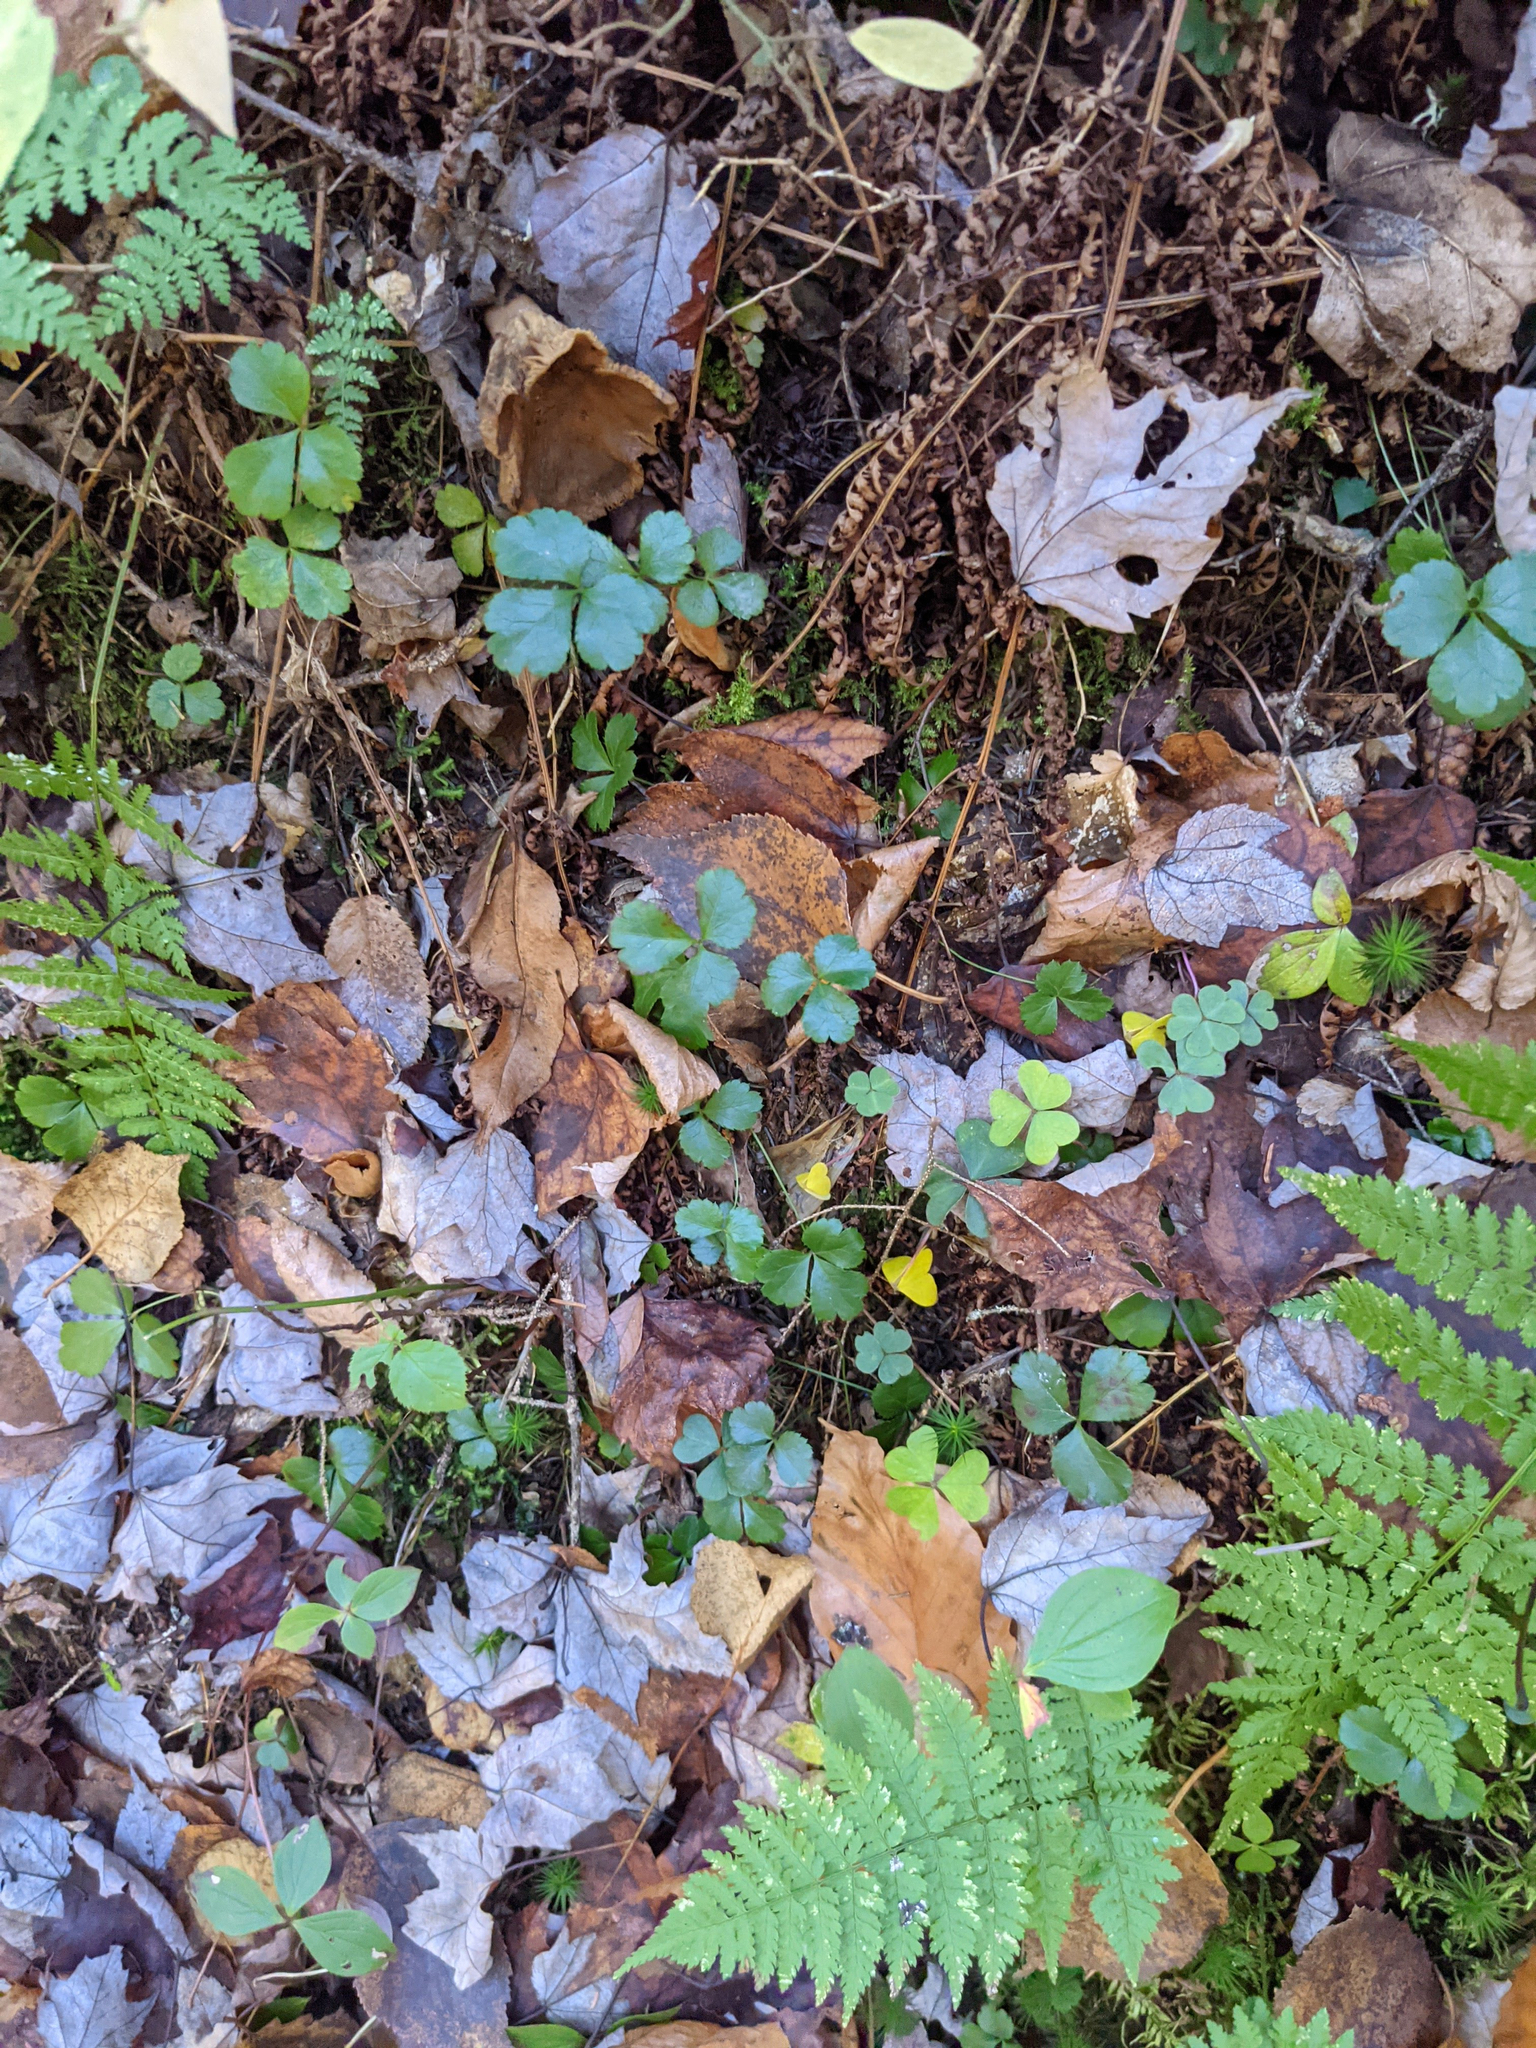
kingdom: Plantae
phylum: Tracheophyta
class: Magnoliopsida
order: Ranunculales
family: Ranunculaceae
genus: Coptis
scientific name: Coptis trifolia
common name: Canker-root
